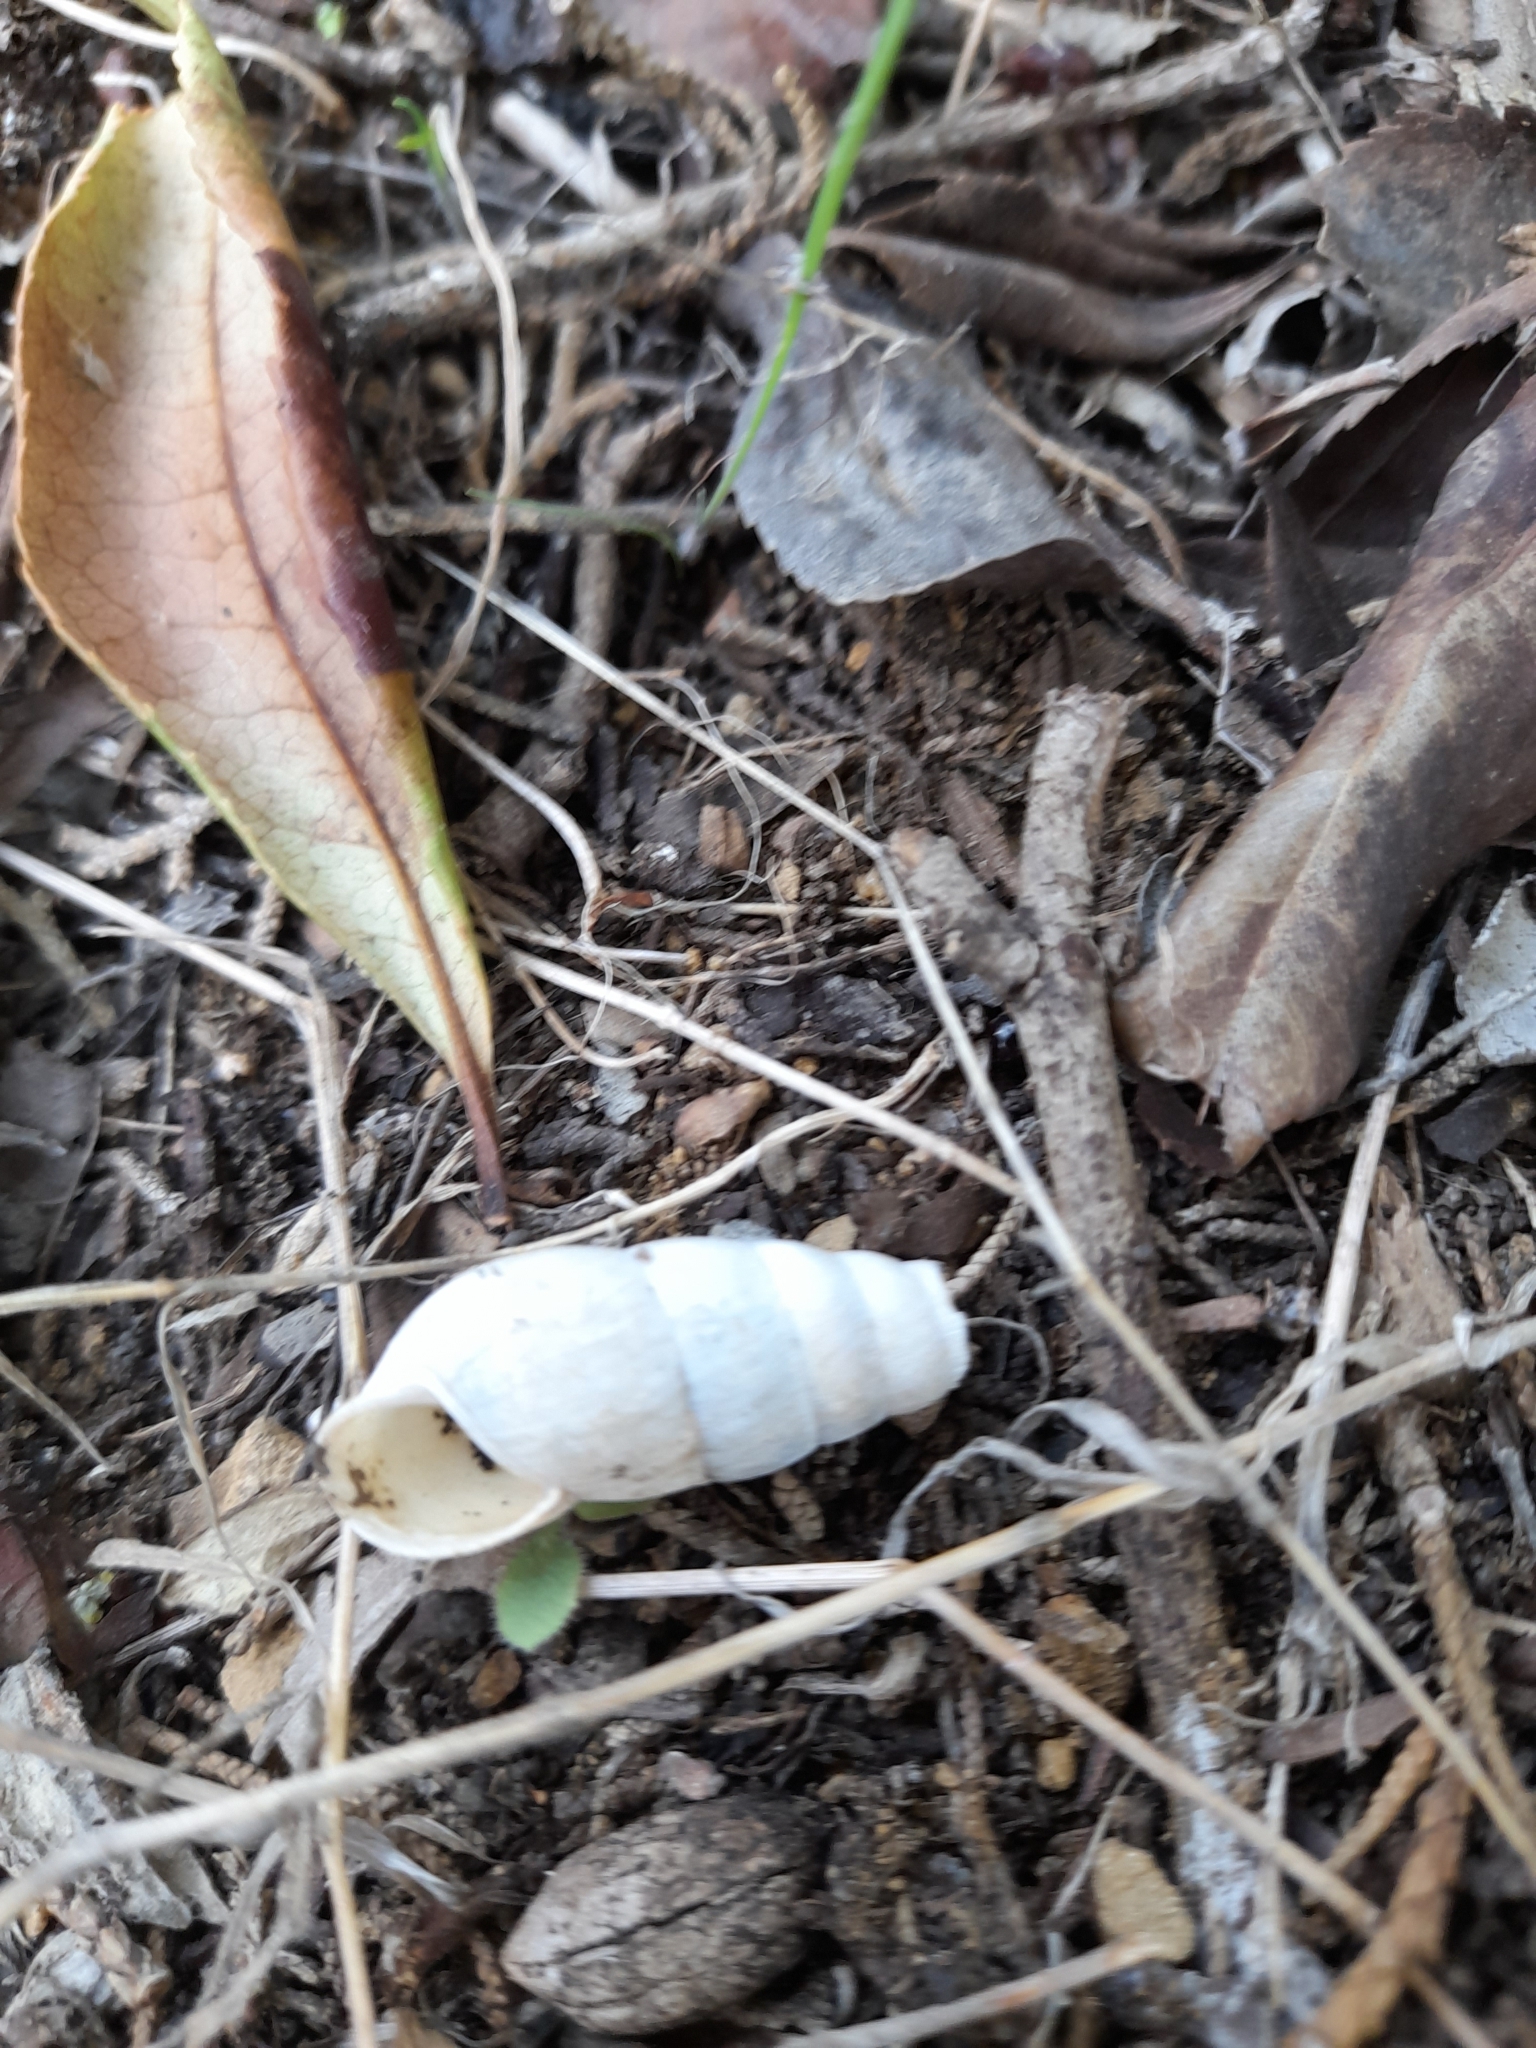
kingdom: Animalia
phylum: Mollusca
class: Gastropoda
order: Stylommatophora
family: Achatinidae
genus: Rumina
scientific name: Rumina decollata
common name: Decollate snail
